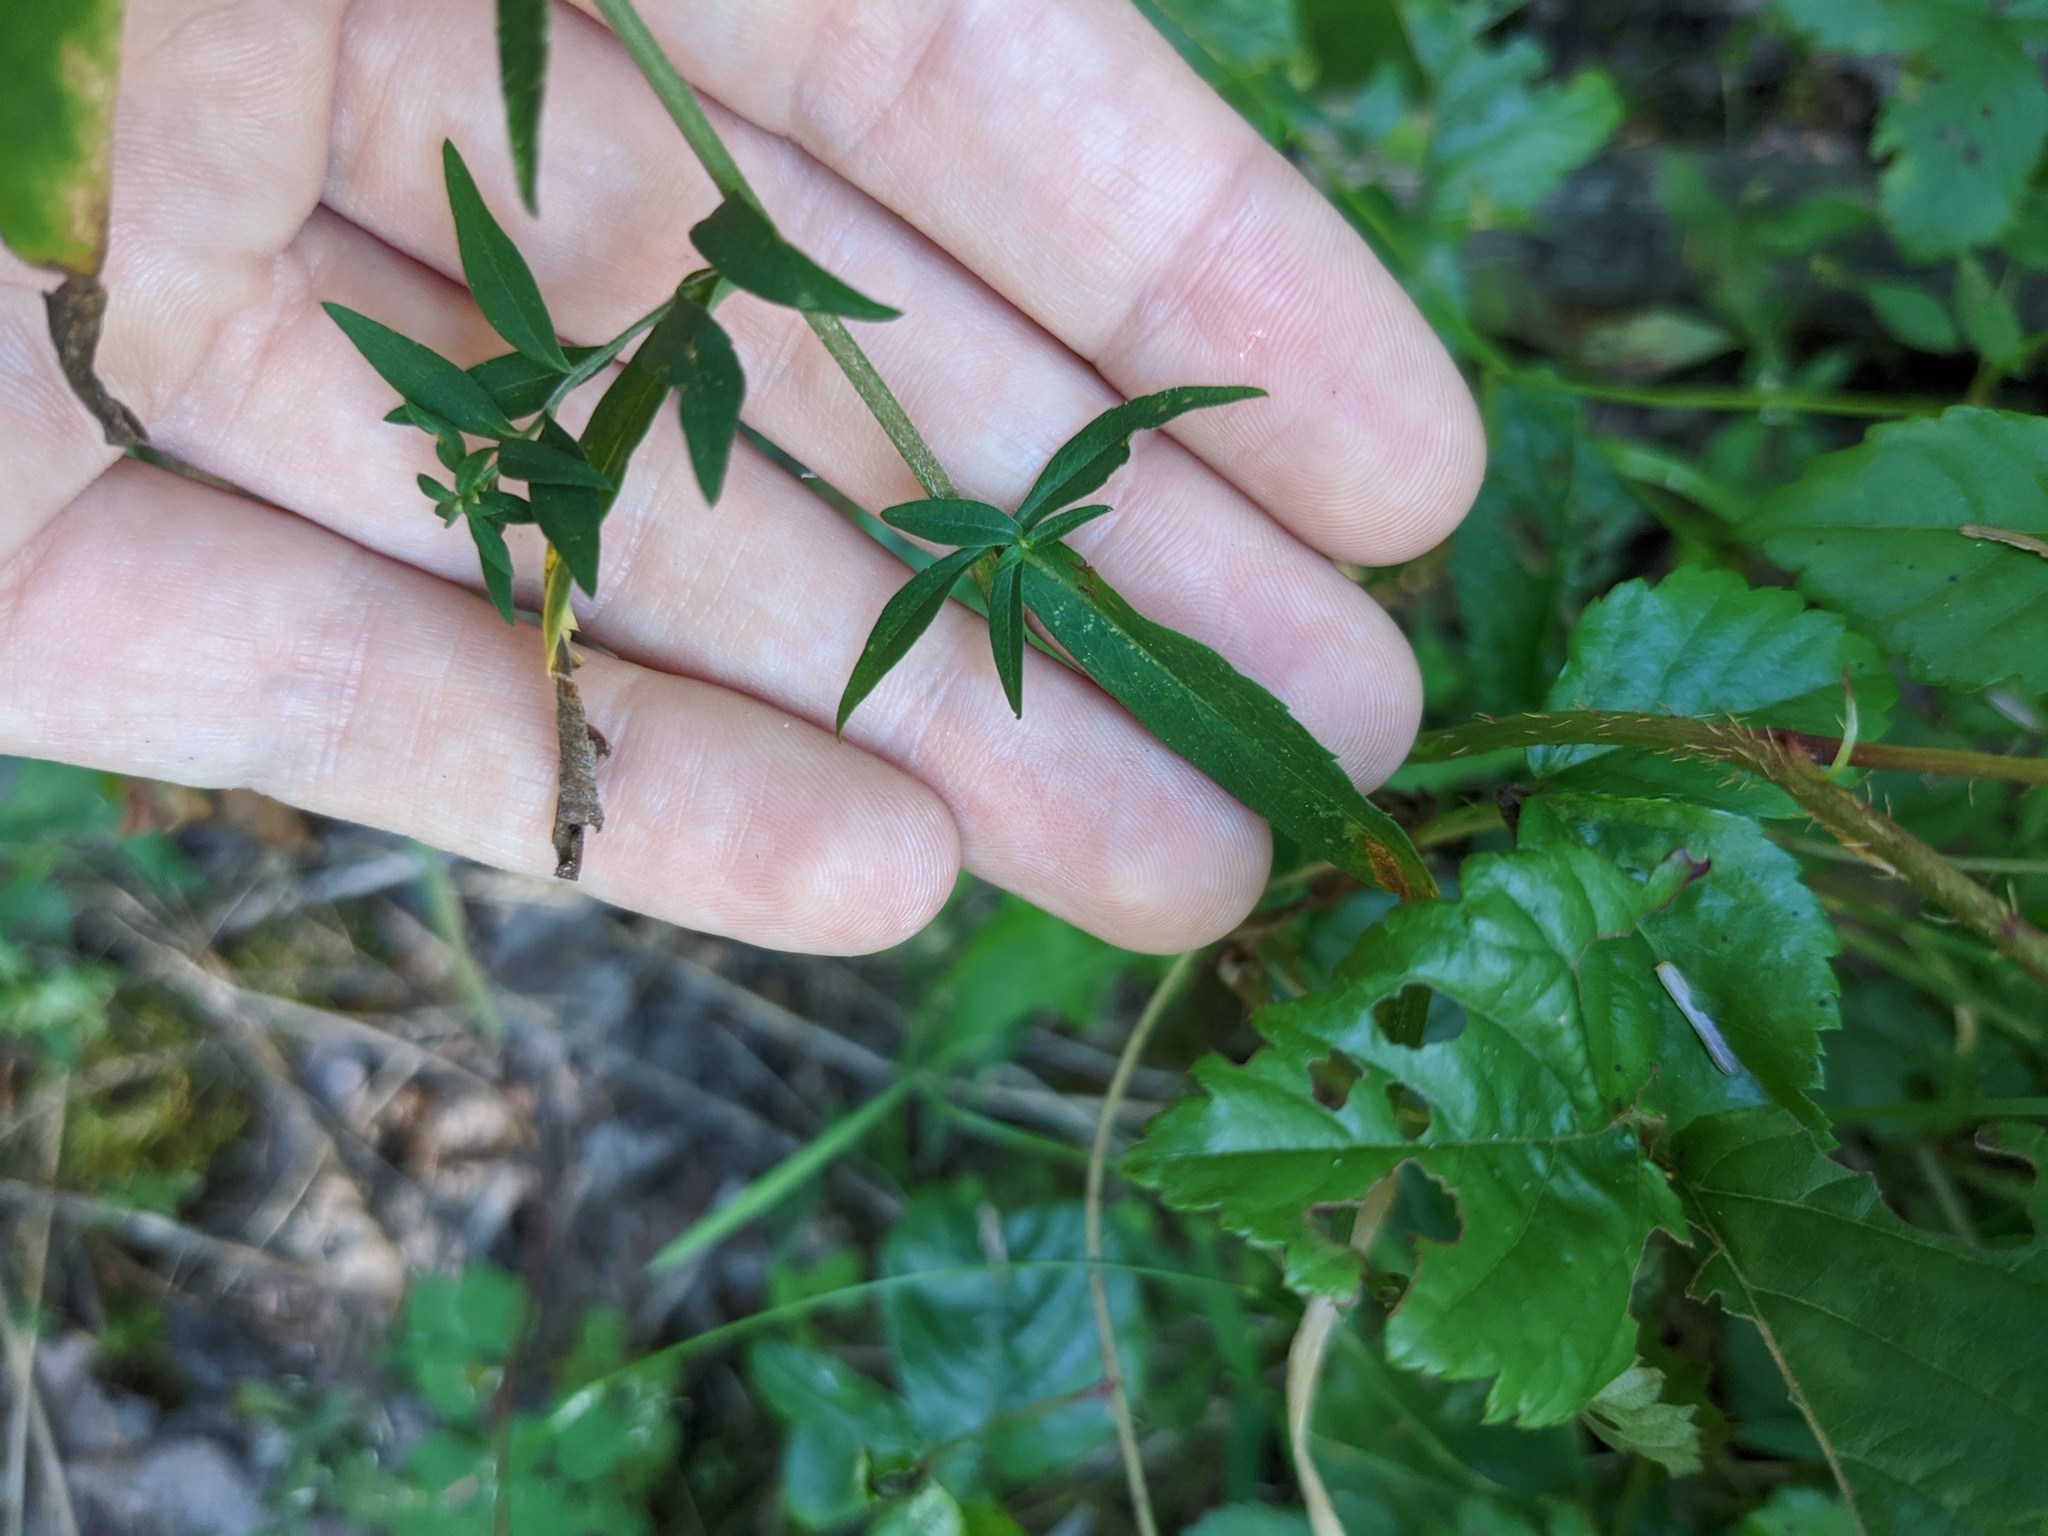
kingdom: Plantae
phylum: Tracheophyta
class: Magnoliopsida
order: Asterales
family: Asteraceae
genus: Symphyotrichum
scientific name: Symphyotrichum lateriflorum
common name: Calico aster
